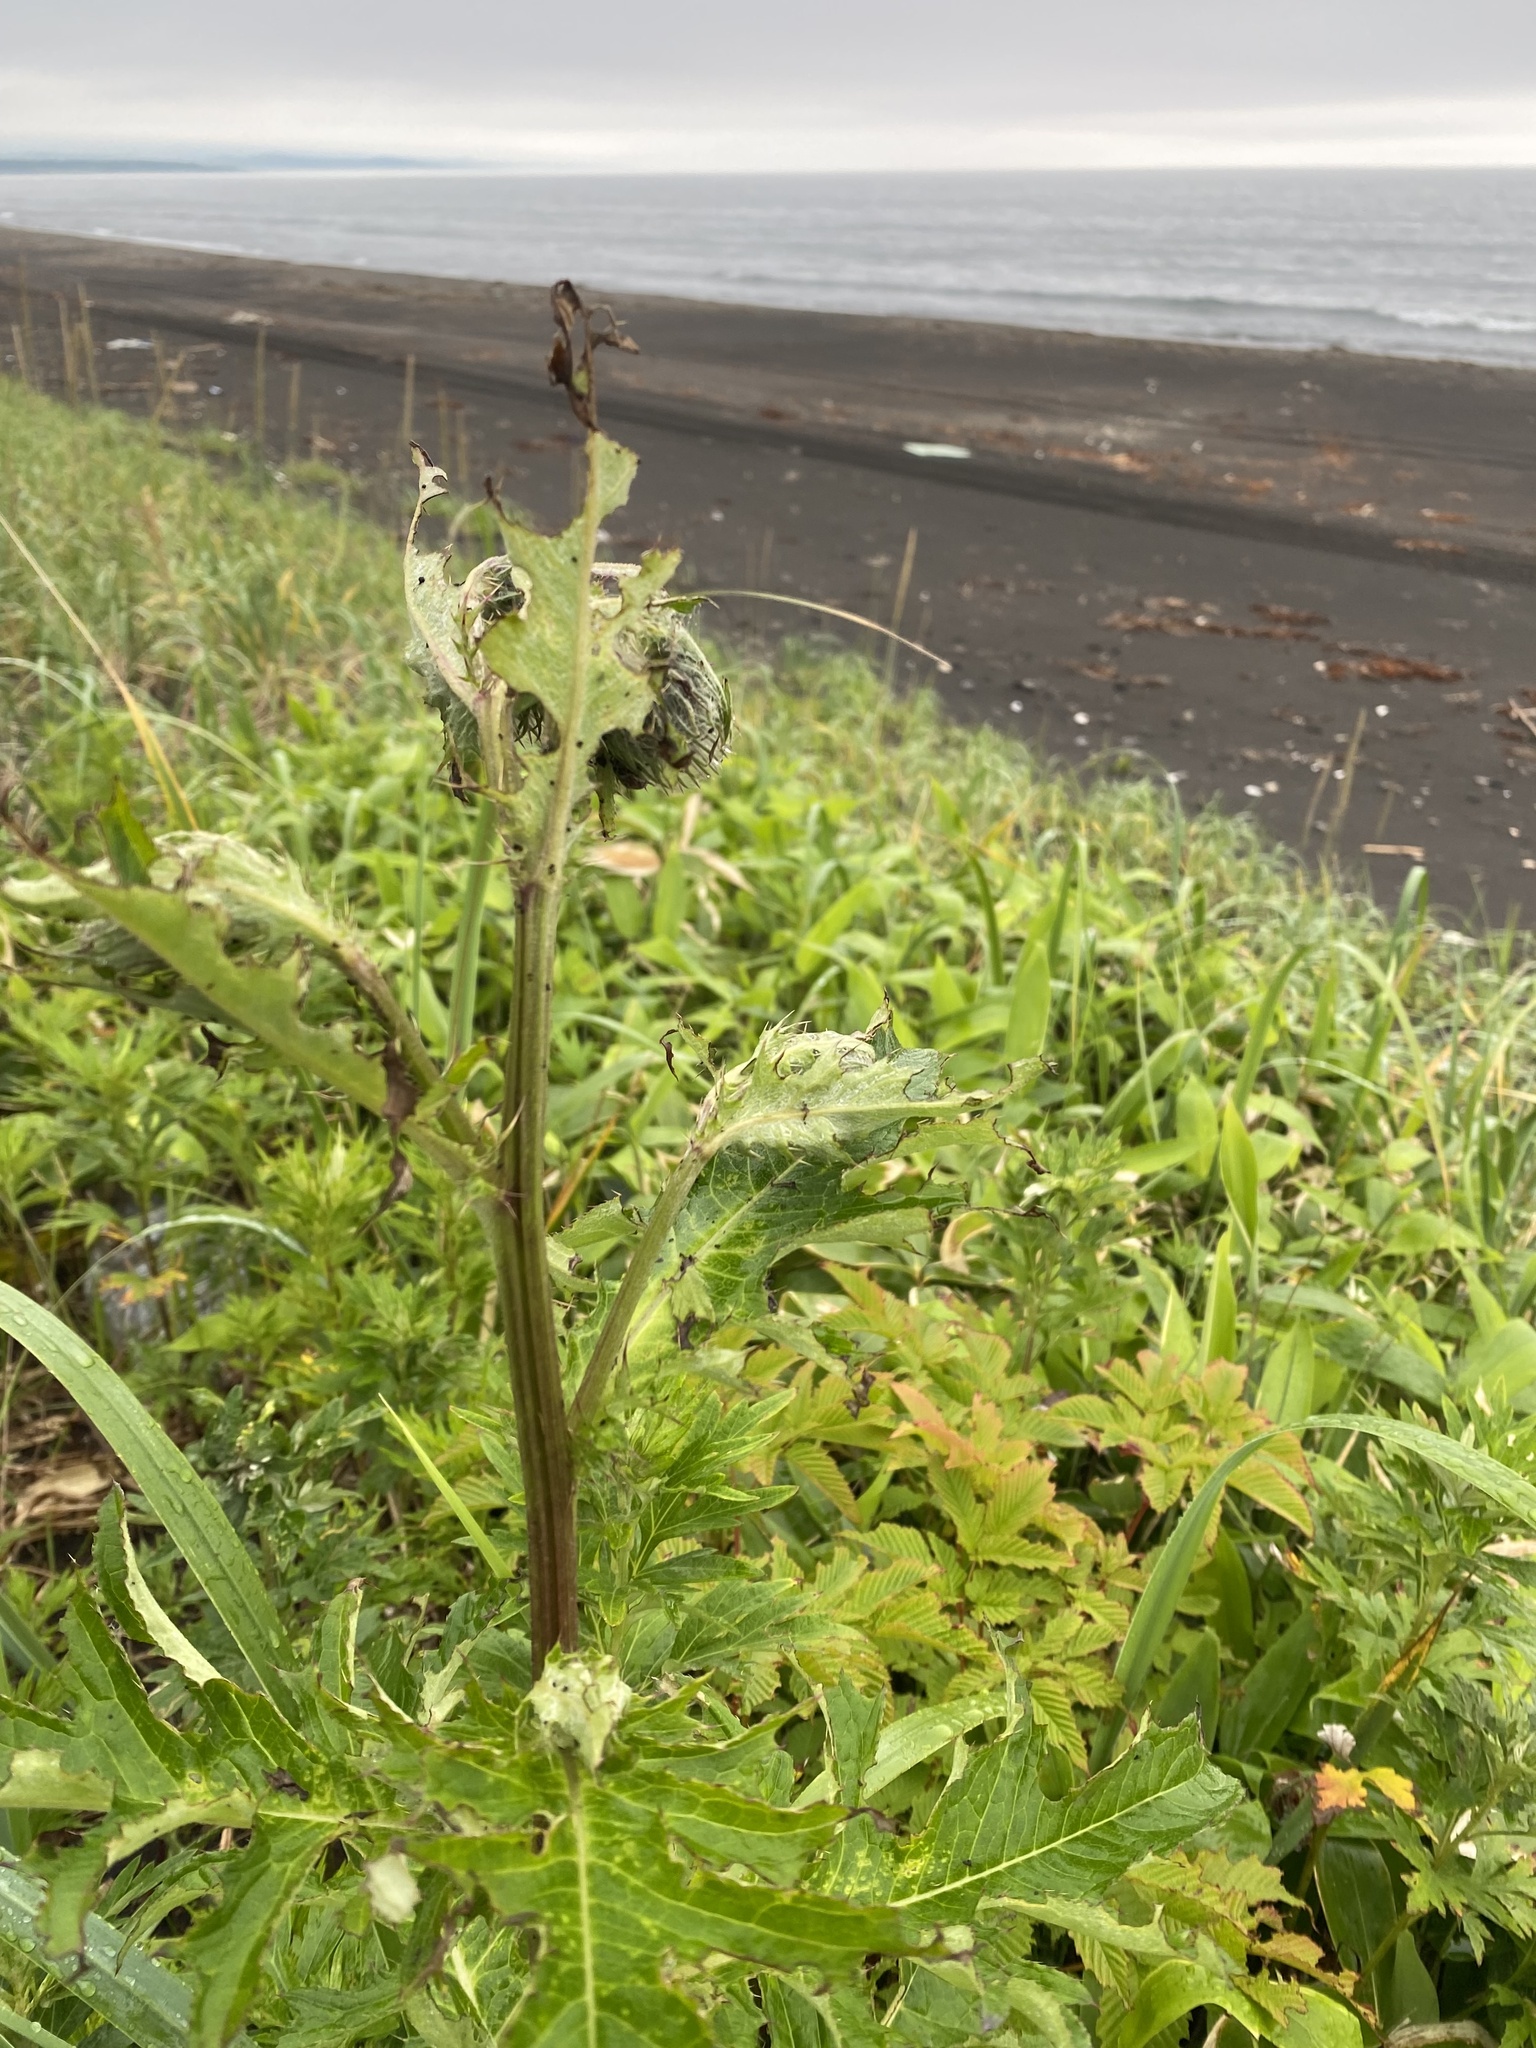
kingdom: Plantae
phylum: Tracheophyta
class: Magnoliopsida
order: Asterales
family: Asteraceae
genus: Cirsium
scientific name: Cirsium kamtschaticum
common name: Kamchatka thistle
